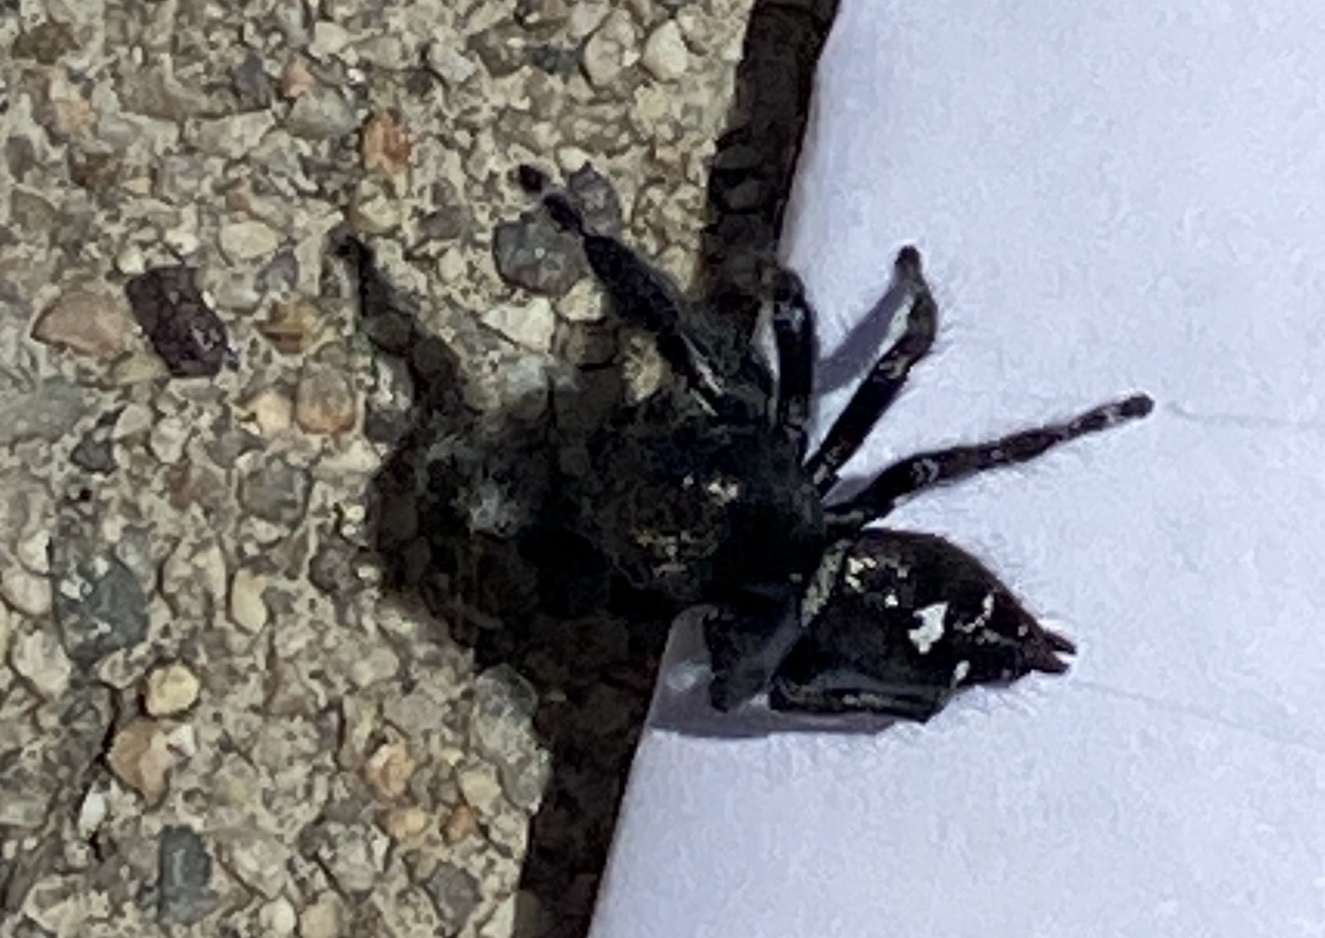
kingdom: Animalia
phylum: Arthropoda
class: Arachnida
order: Araneae
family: Salticidae
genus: Phidippus
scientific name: Phidippus audax
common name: Bold jumper
